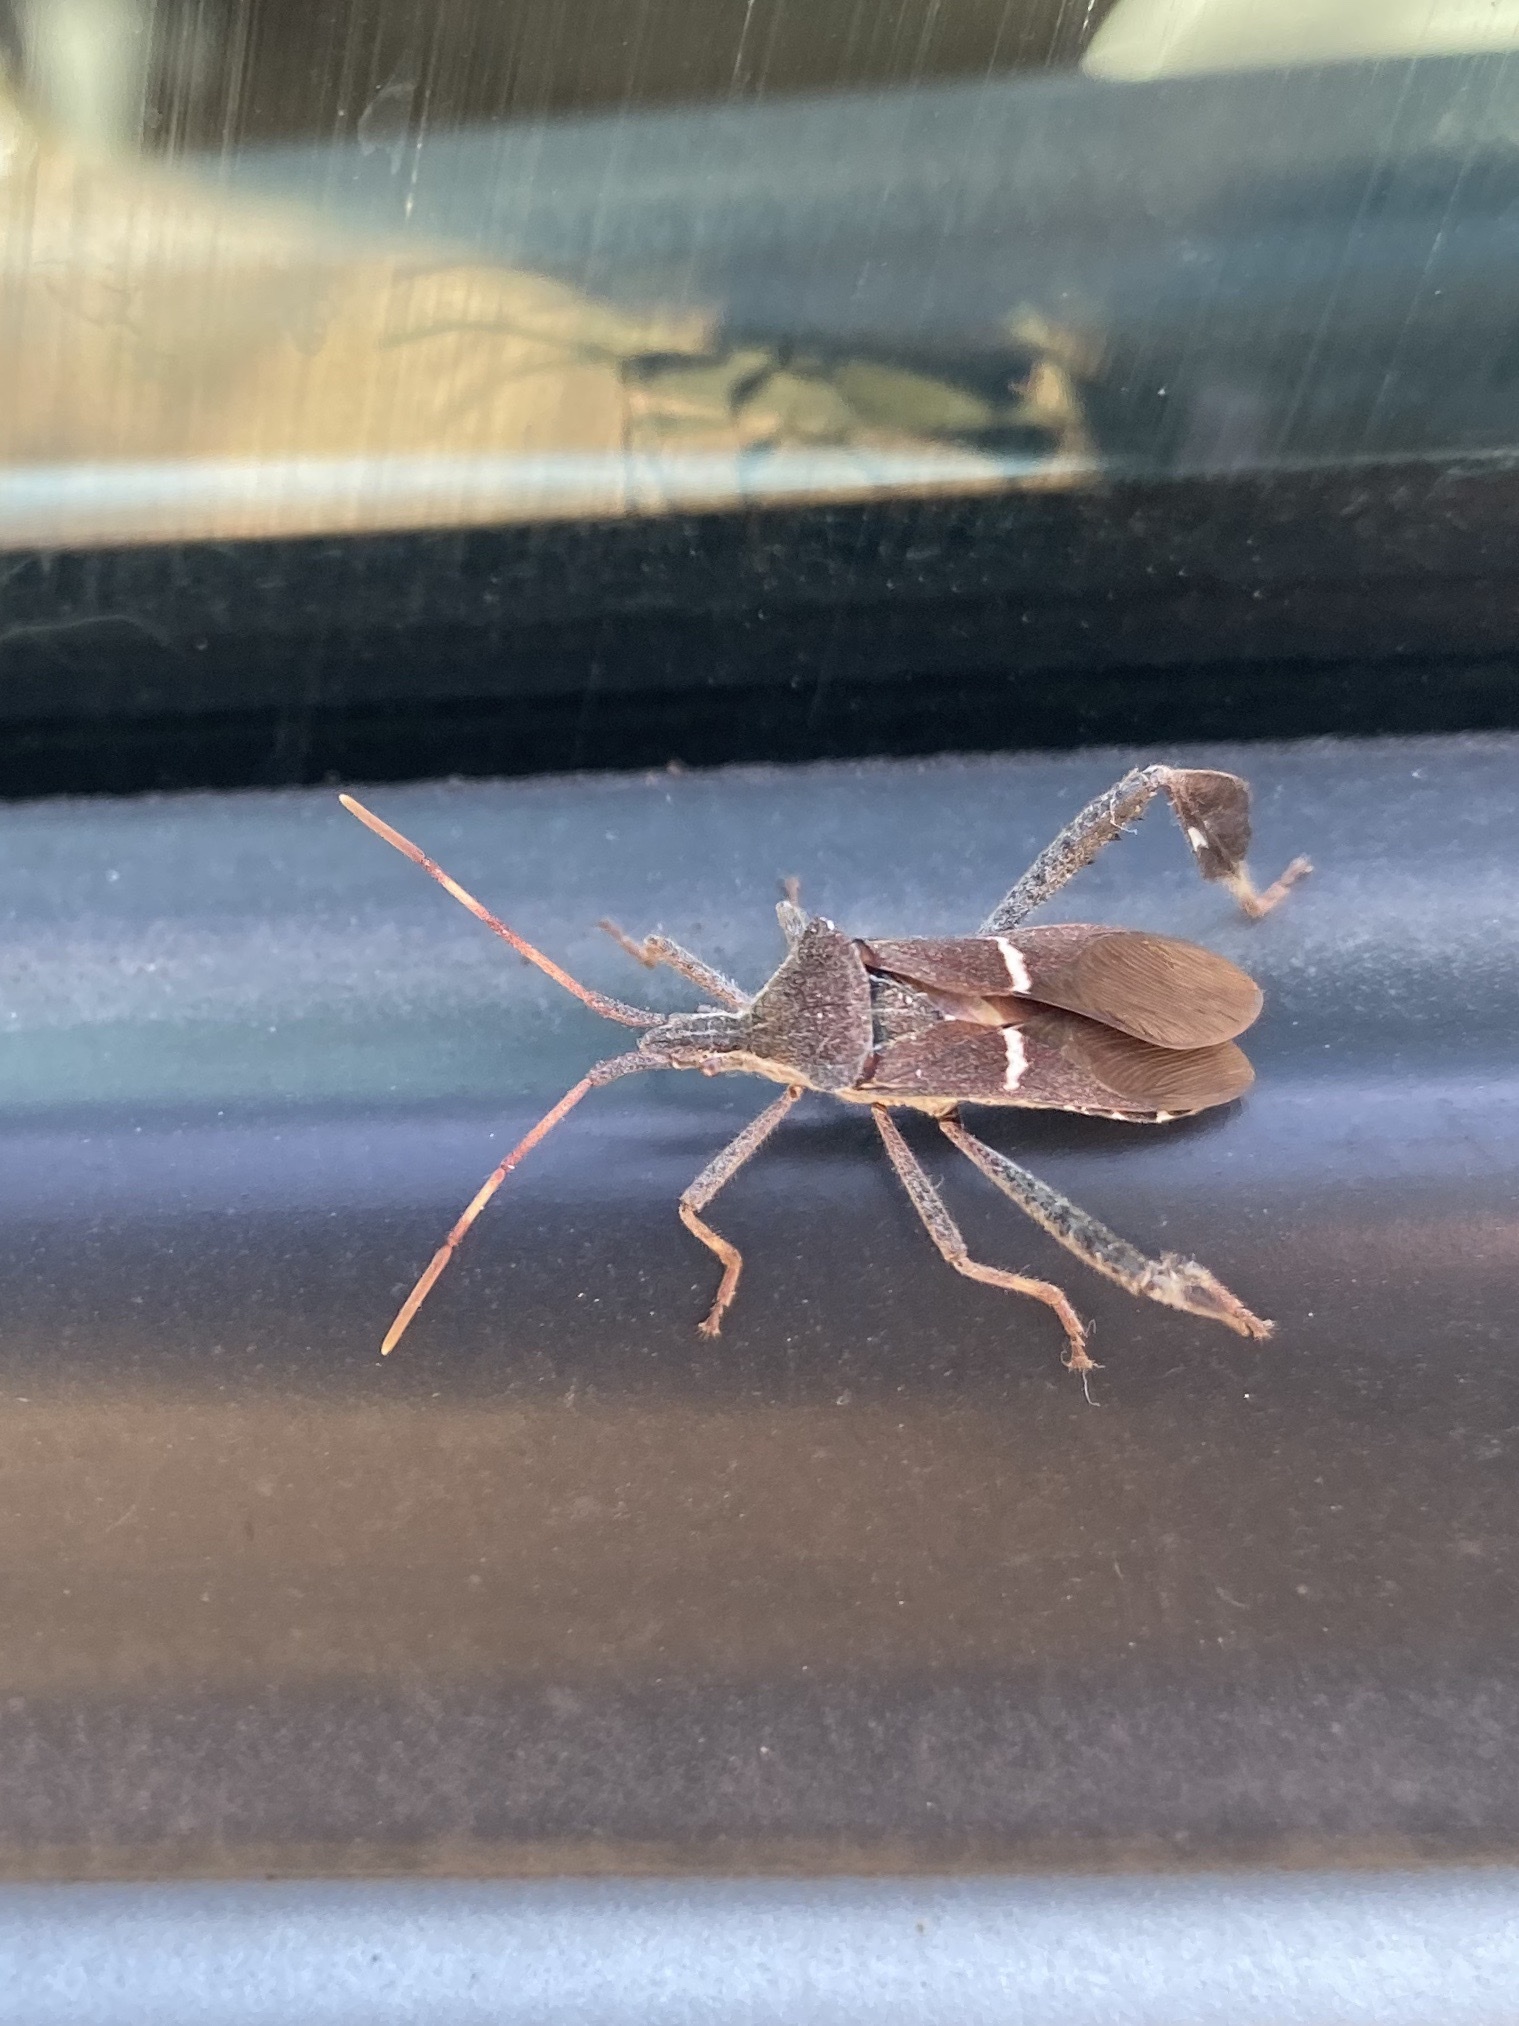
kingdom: Animalia
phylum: Arthropoda
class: Insecta
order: Hemiptera
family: Coreidae
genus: Leptoglossus
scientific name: Leptoglossus phyllopus
